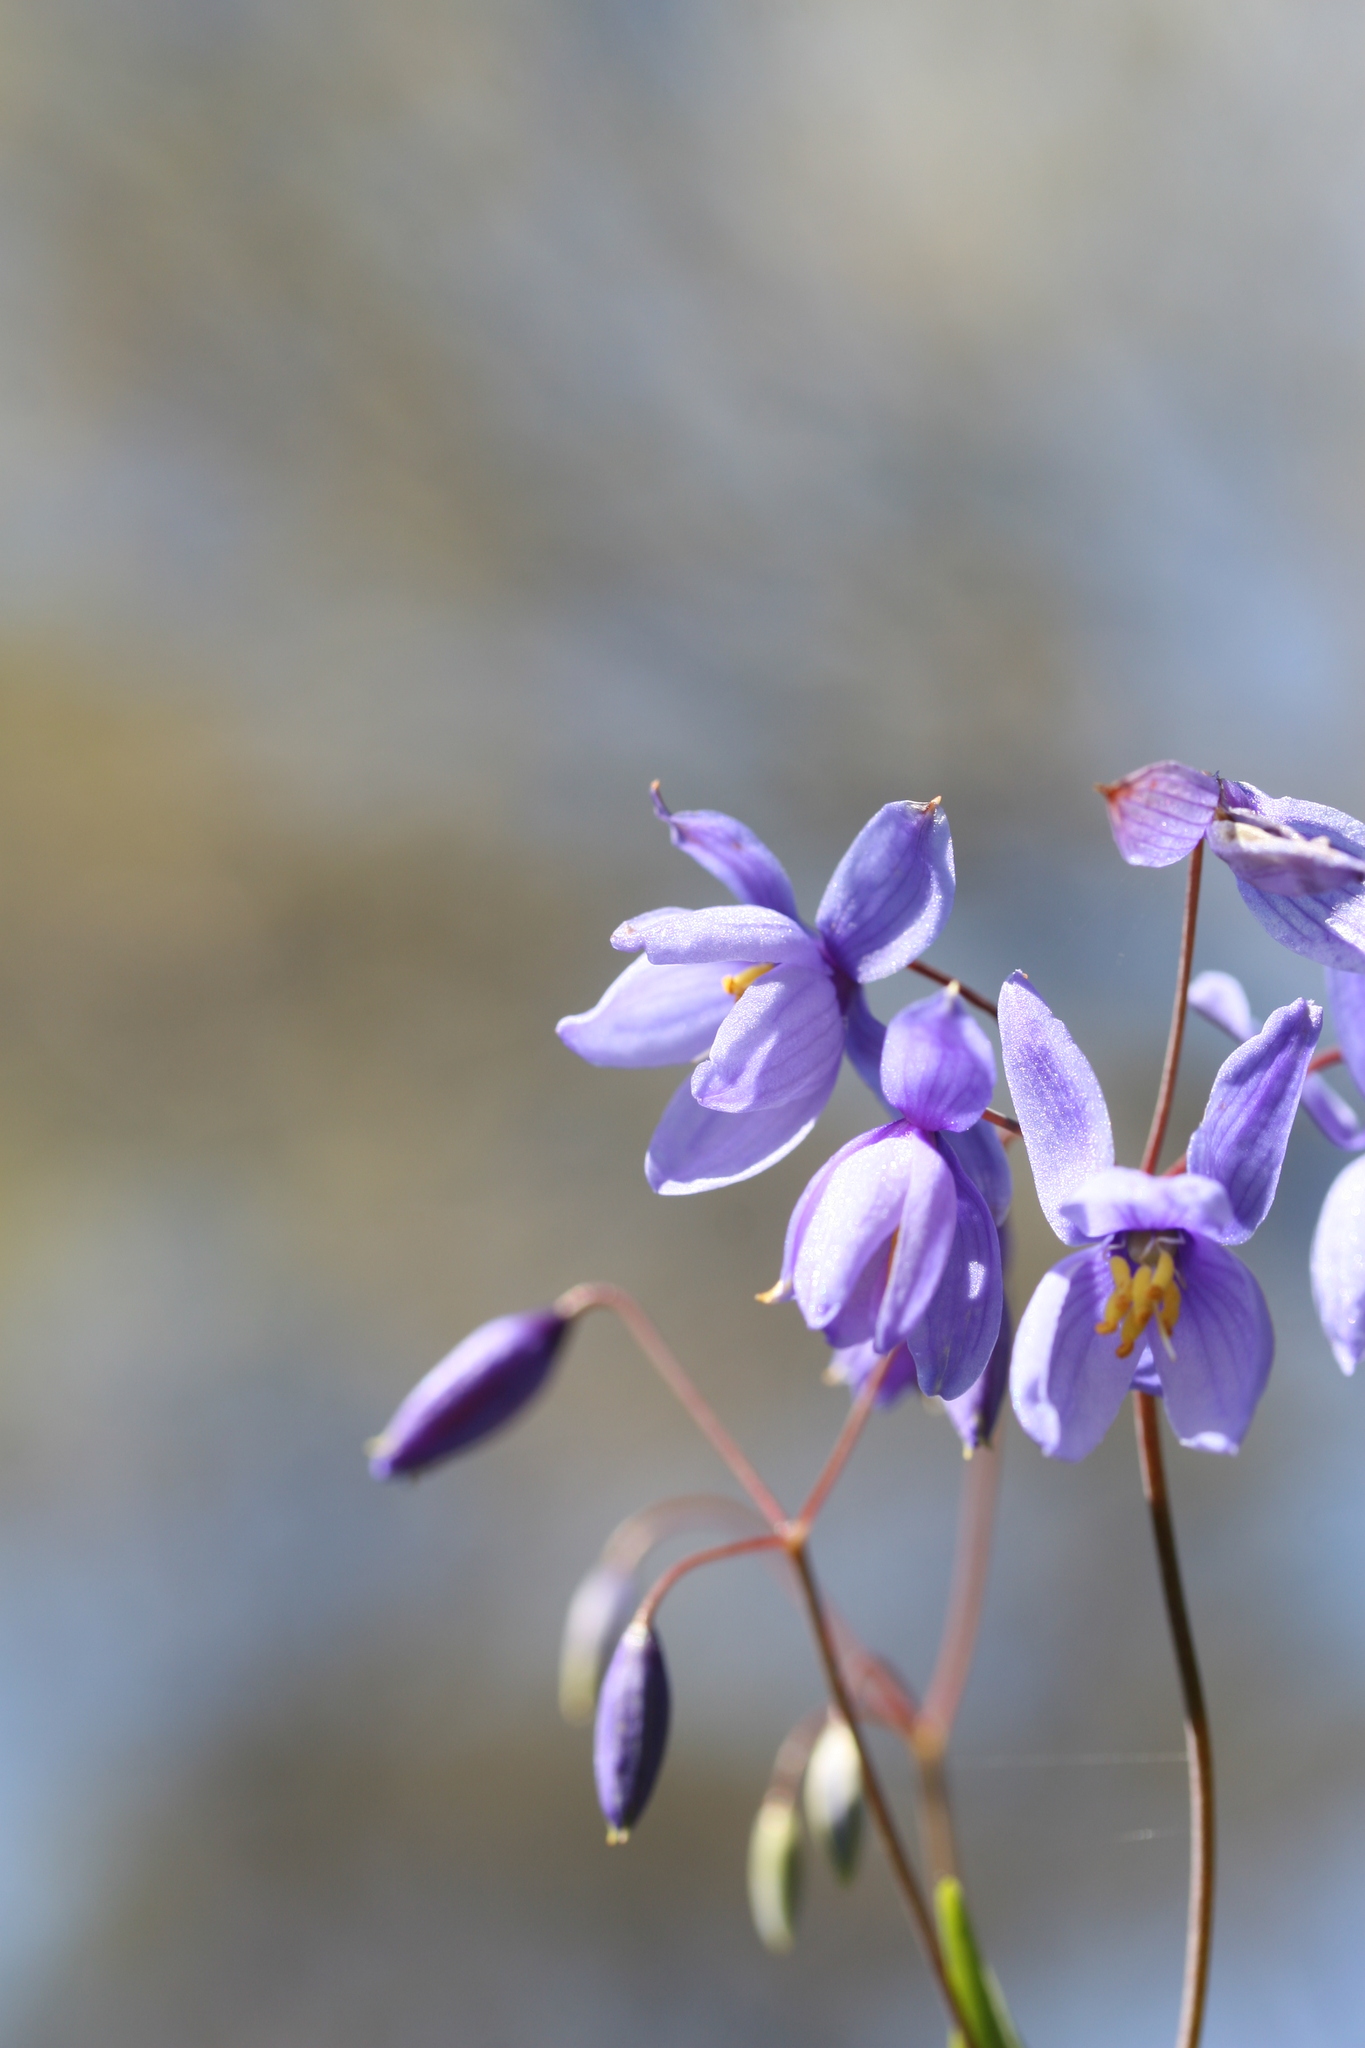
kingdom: Plantae
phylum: Tracheophyta
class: Liliopsida
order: Asparagales
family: Asphodelaceae
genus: Stypandra
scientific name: Stypandra glauca
